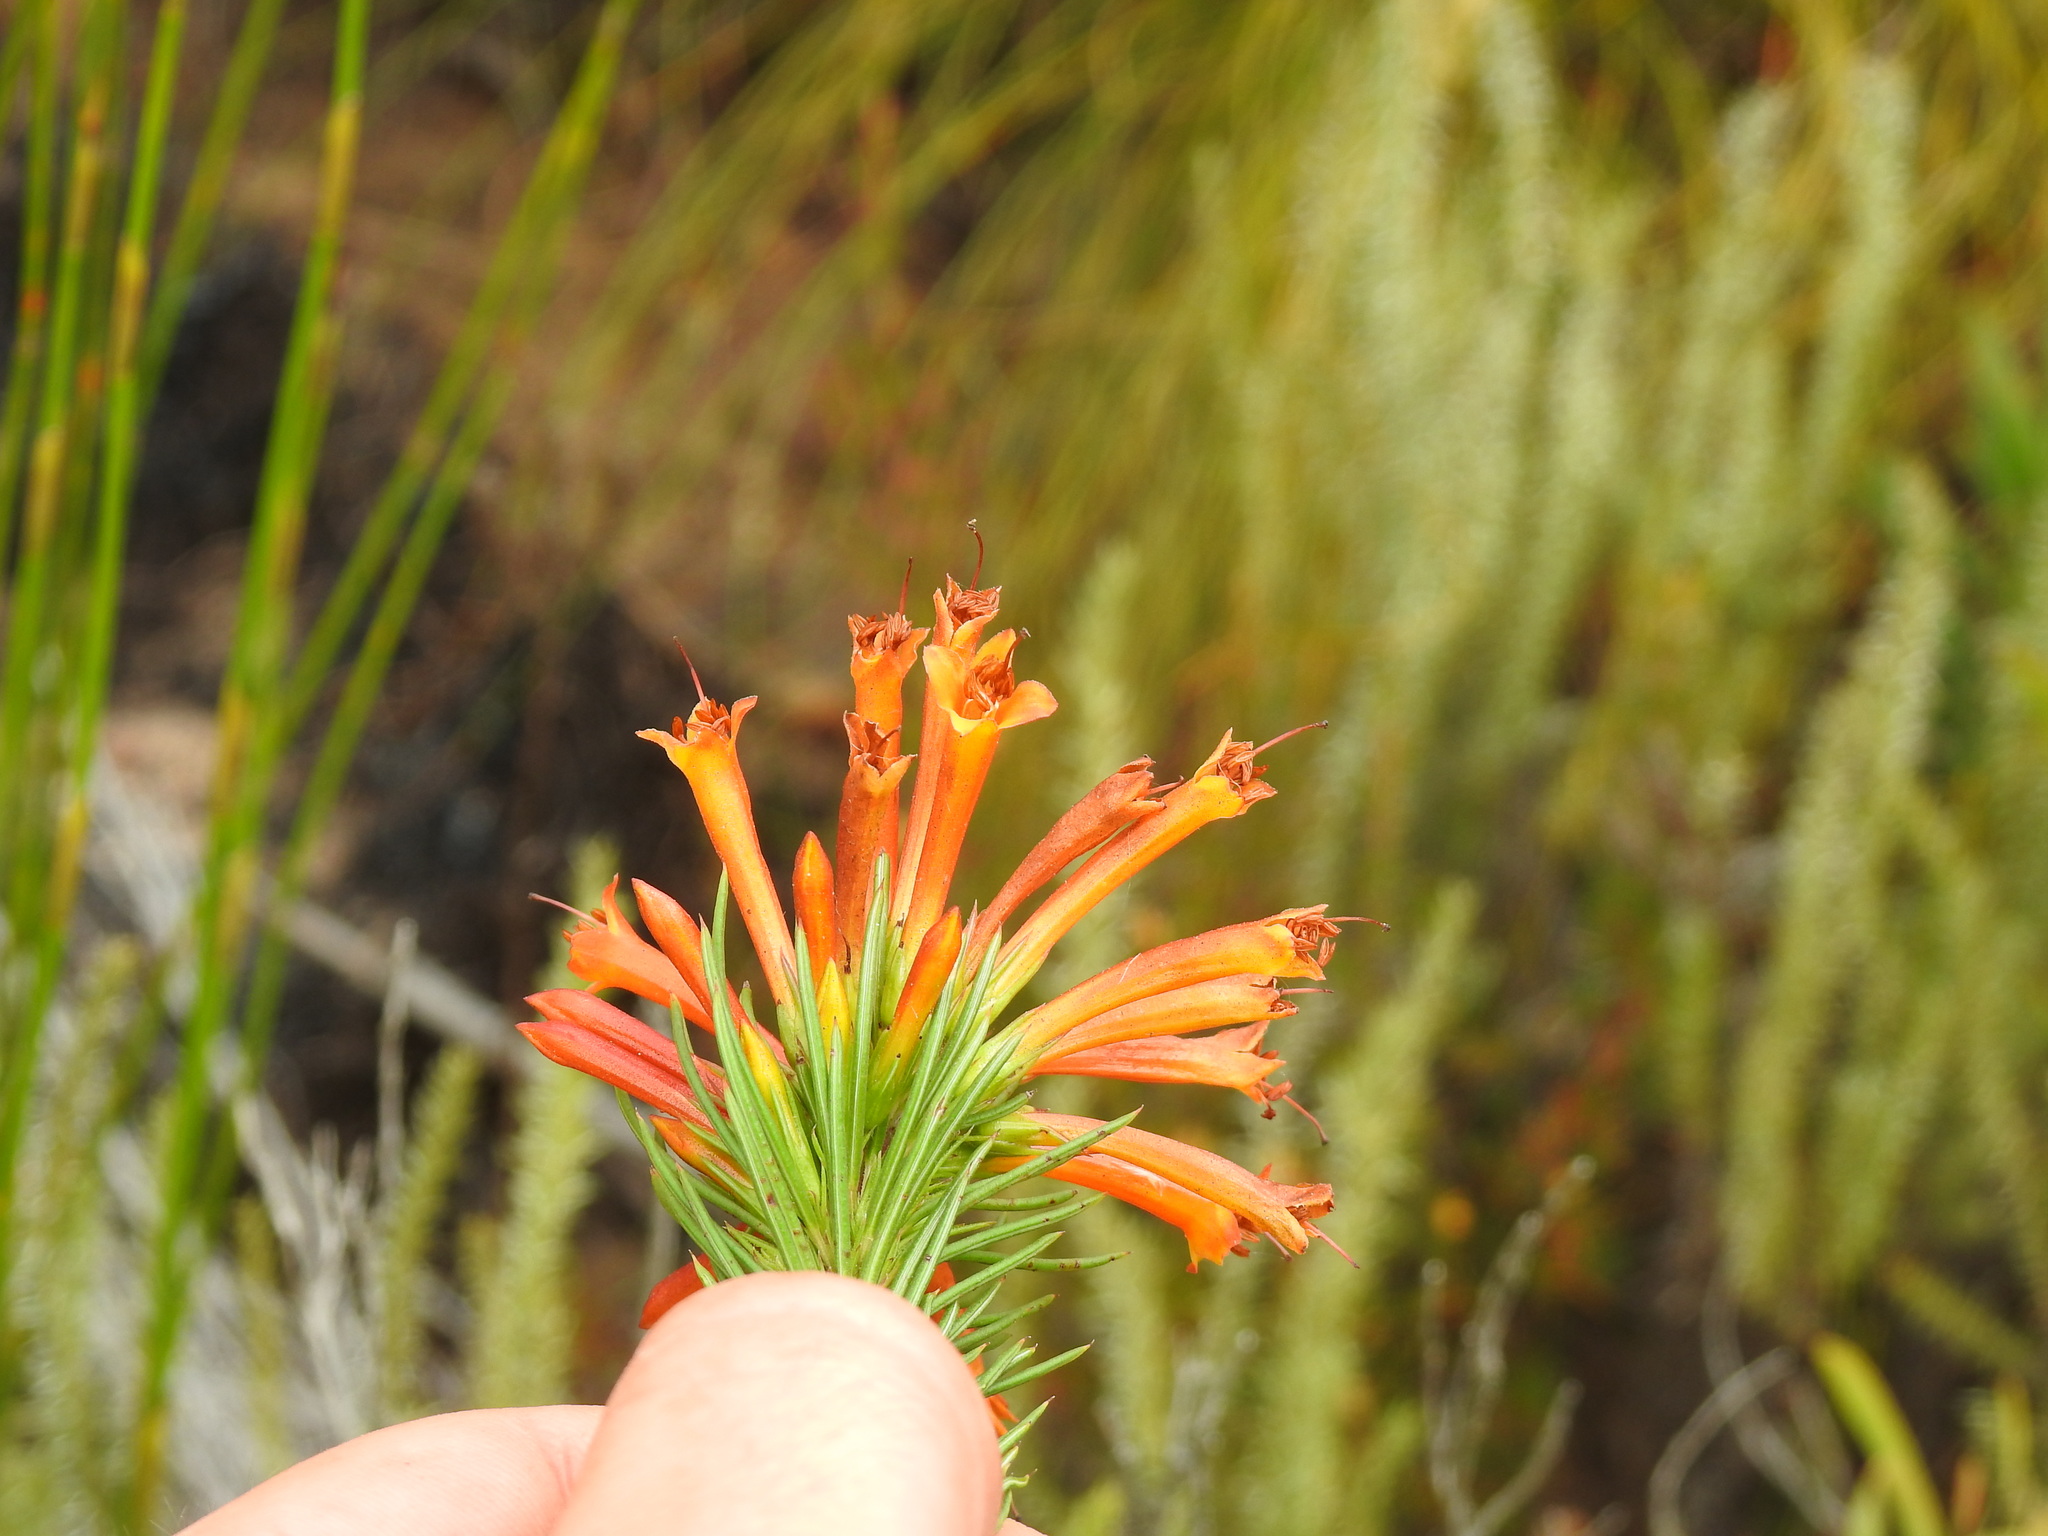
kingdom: Plantae
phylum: Tracheophyta
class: Magnoliopsida
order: Ericales
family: Ericaceae
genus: Erica
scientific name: Erica grandiflora
